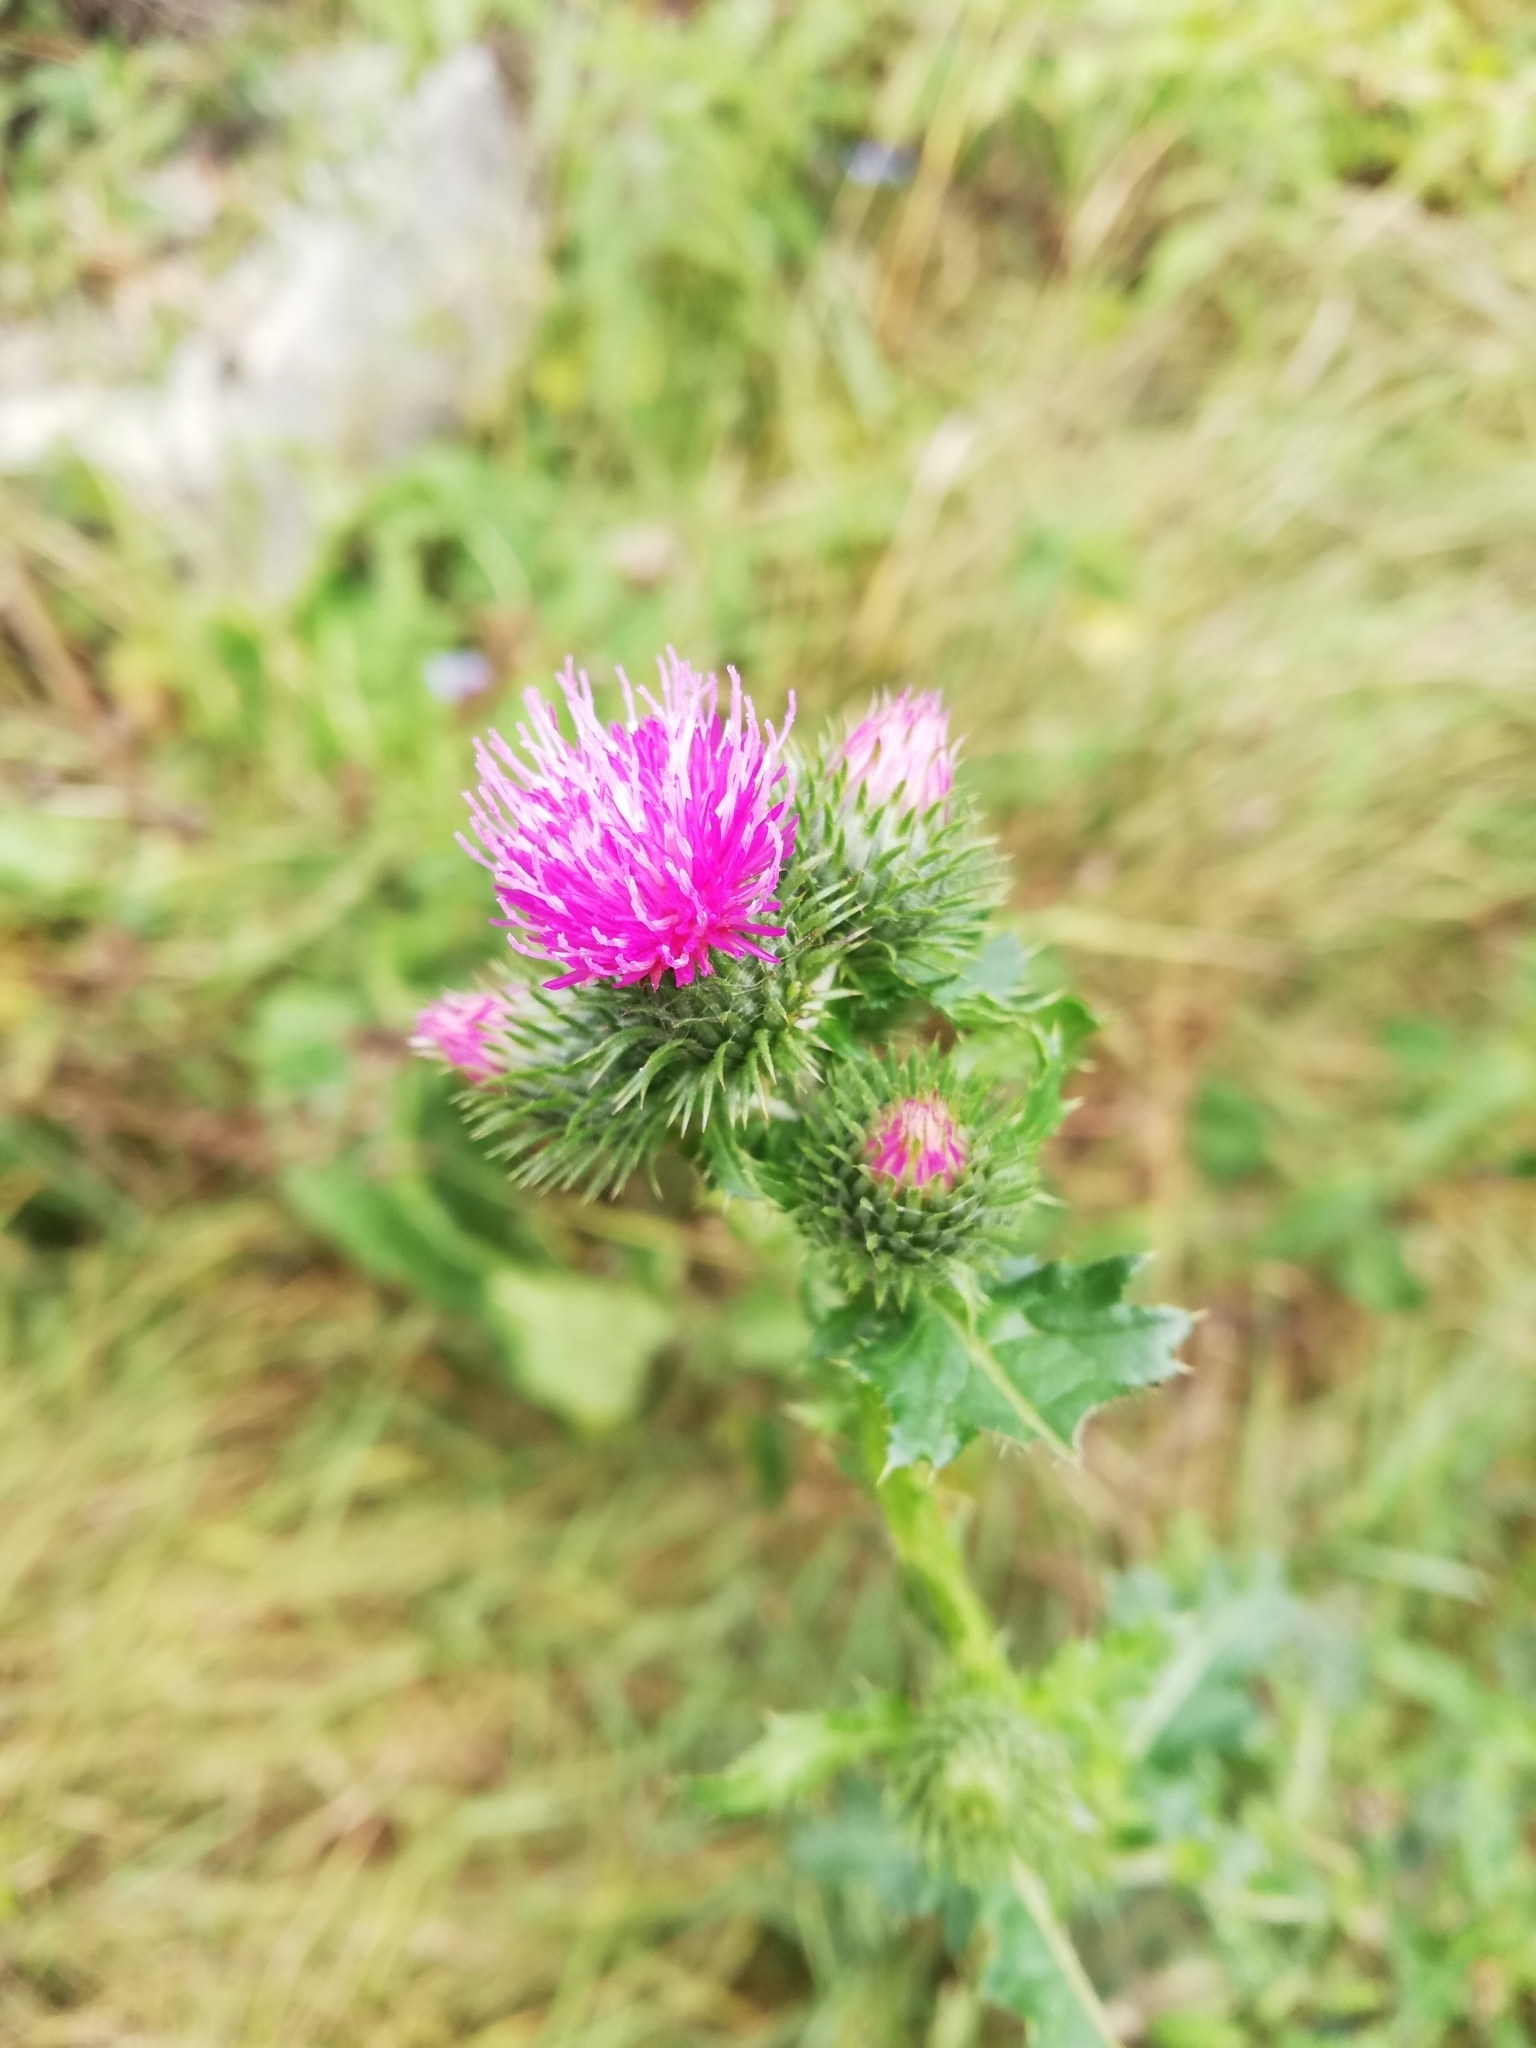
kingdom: Plantae
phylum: Tracheophyta
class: Magnoliopsida
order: Asterales
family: Asteraceae
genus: Carduus
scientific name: Carduus crispus
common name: Welted thistle
